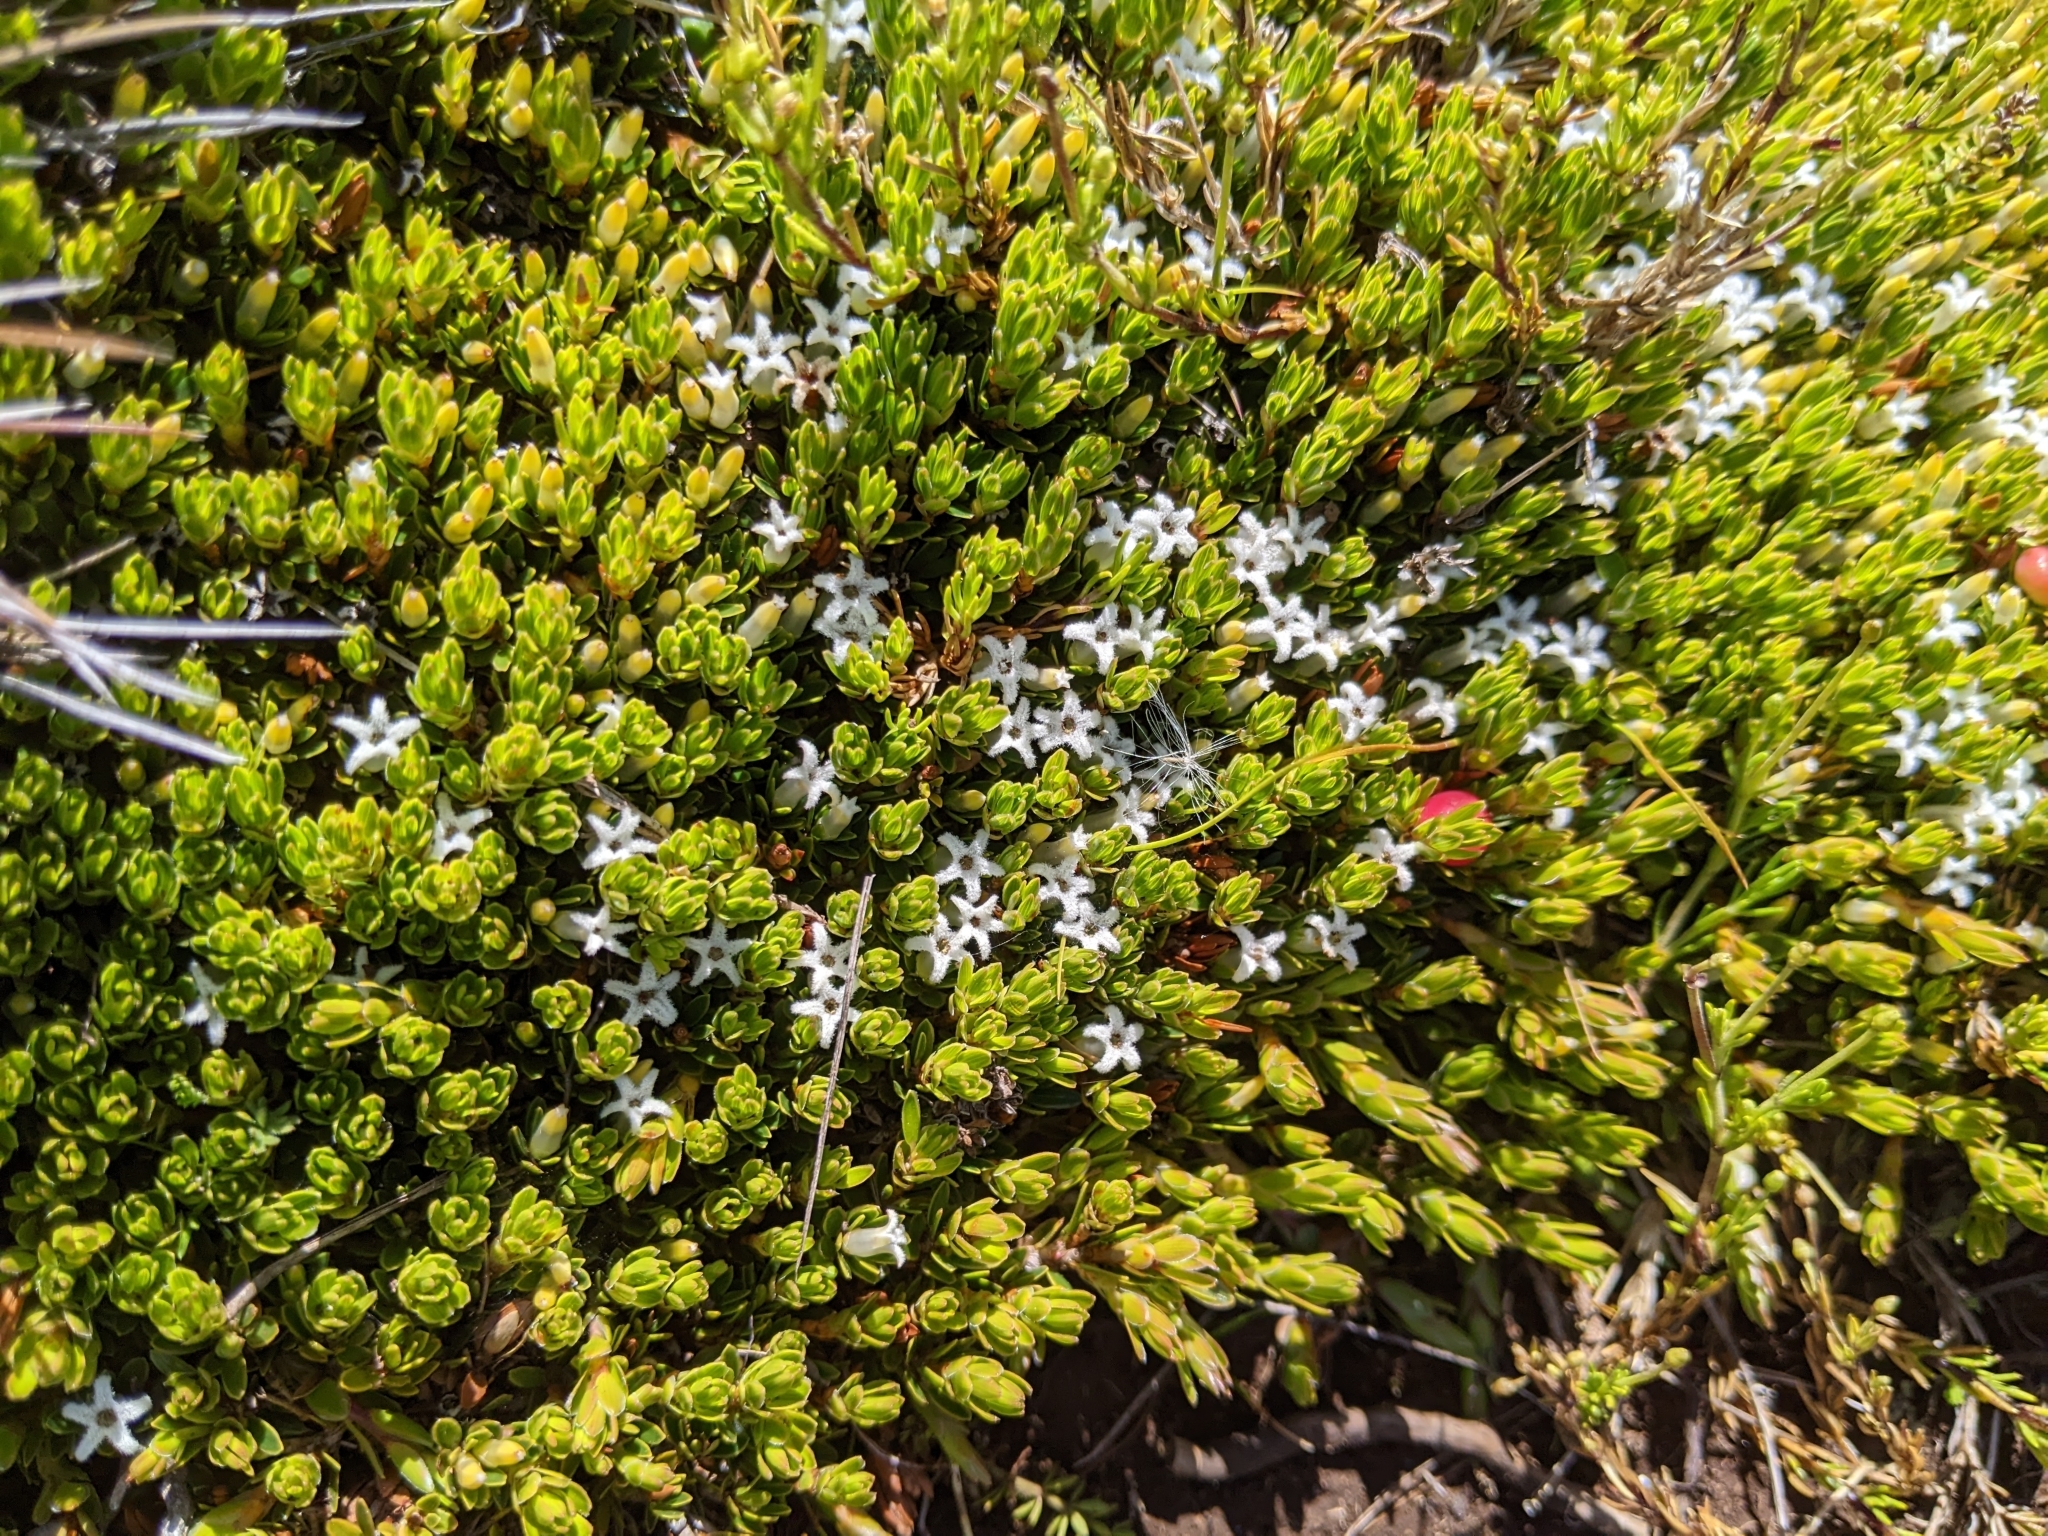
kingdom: Plantae
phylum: Tracheophyta
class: Magnoliopsida
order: Ericales
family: Ericaceae
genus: Pentachondra
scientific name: Pentachondra pumila
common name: Carpet-heath
